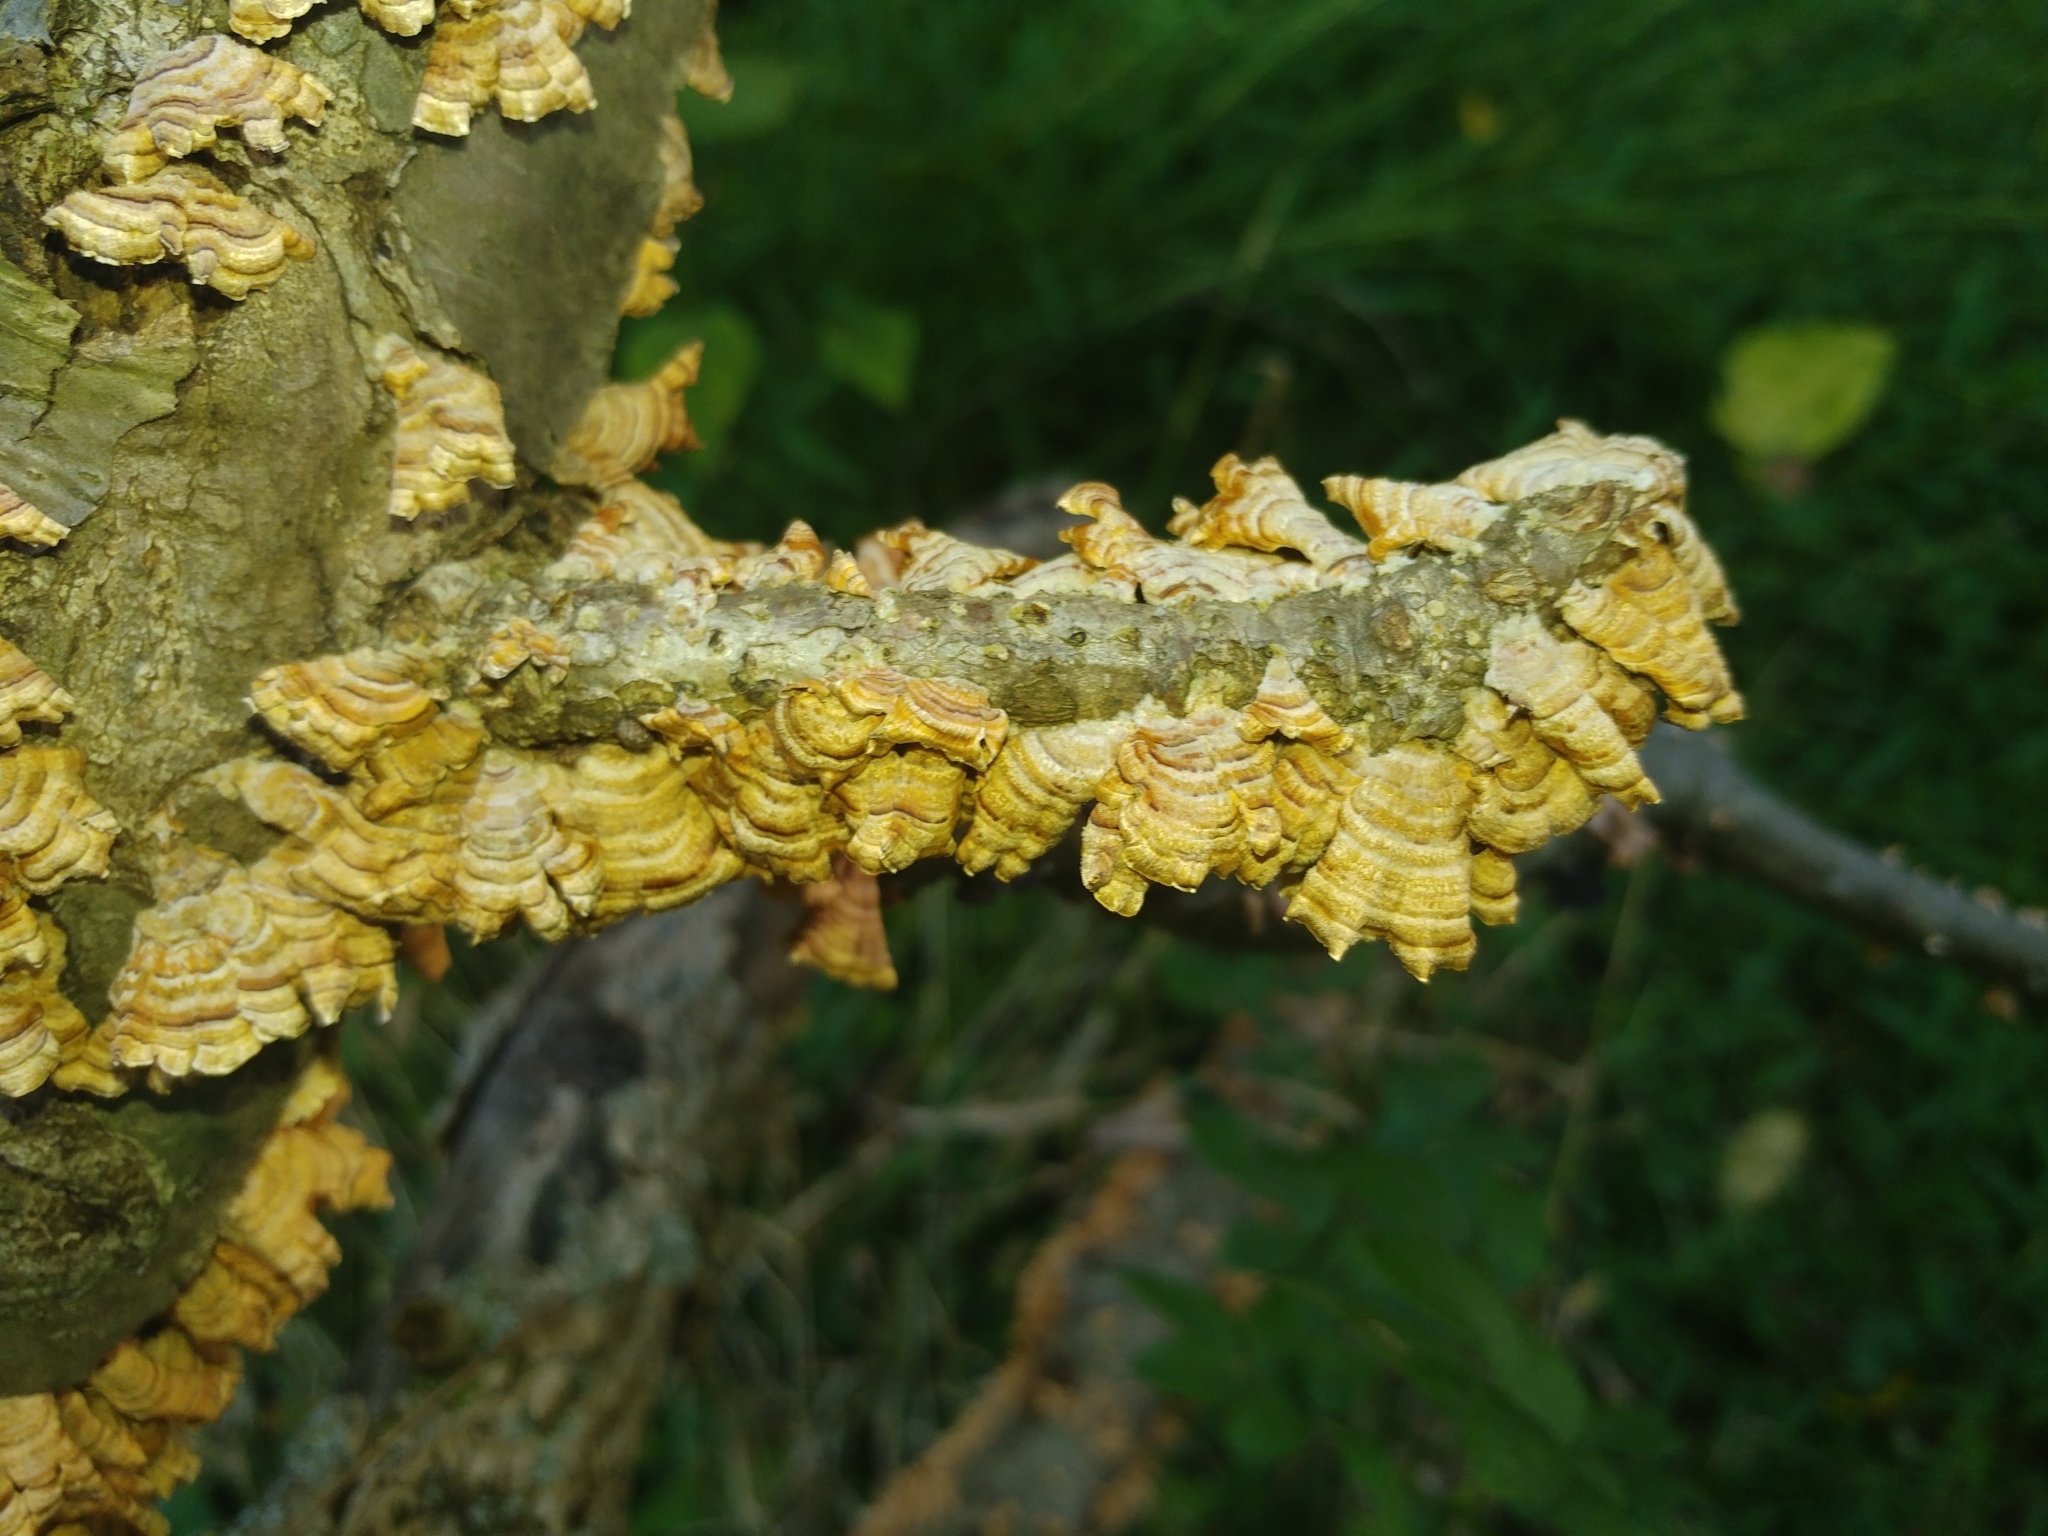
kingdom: Fungi
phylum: Basidiomycota
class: Agaricomycetes
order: Russulales
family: Stereaceae
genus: Stereum
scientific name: Stereum complicatum
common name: Crowded parchment
